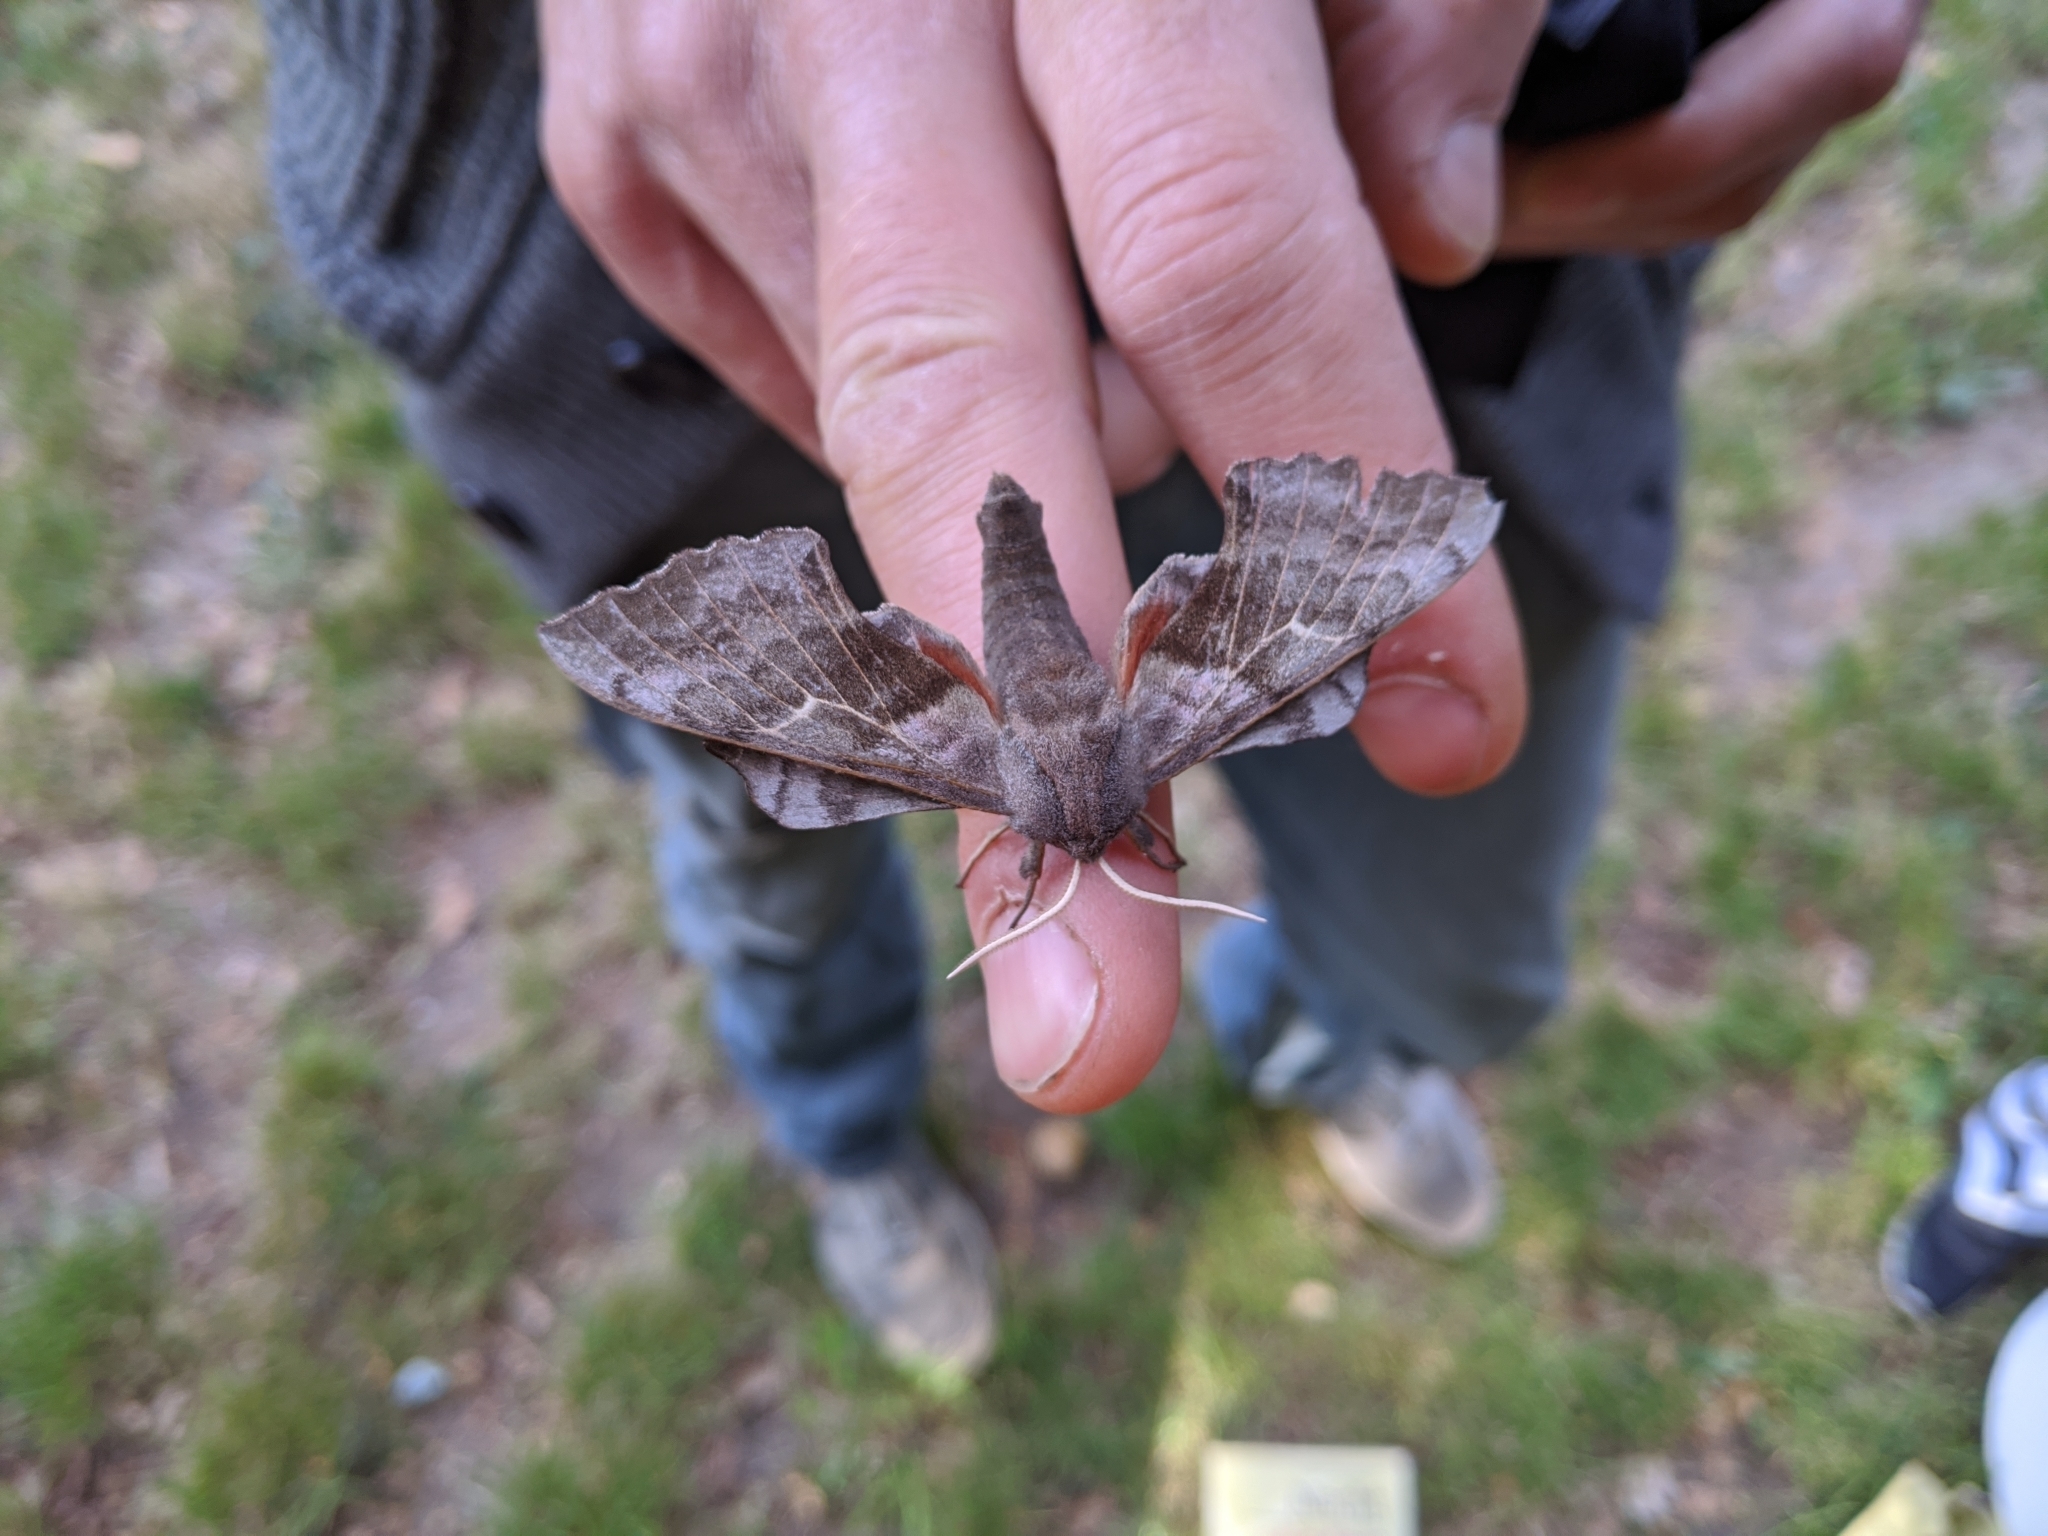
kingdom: Animalia
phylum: Arthropoda
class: Insecta
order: Lepidoptera
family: Sphingidae
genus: Laothoe
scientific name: Laothoe populi
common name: Poplar hawk-moth
